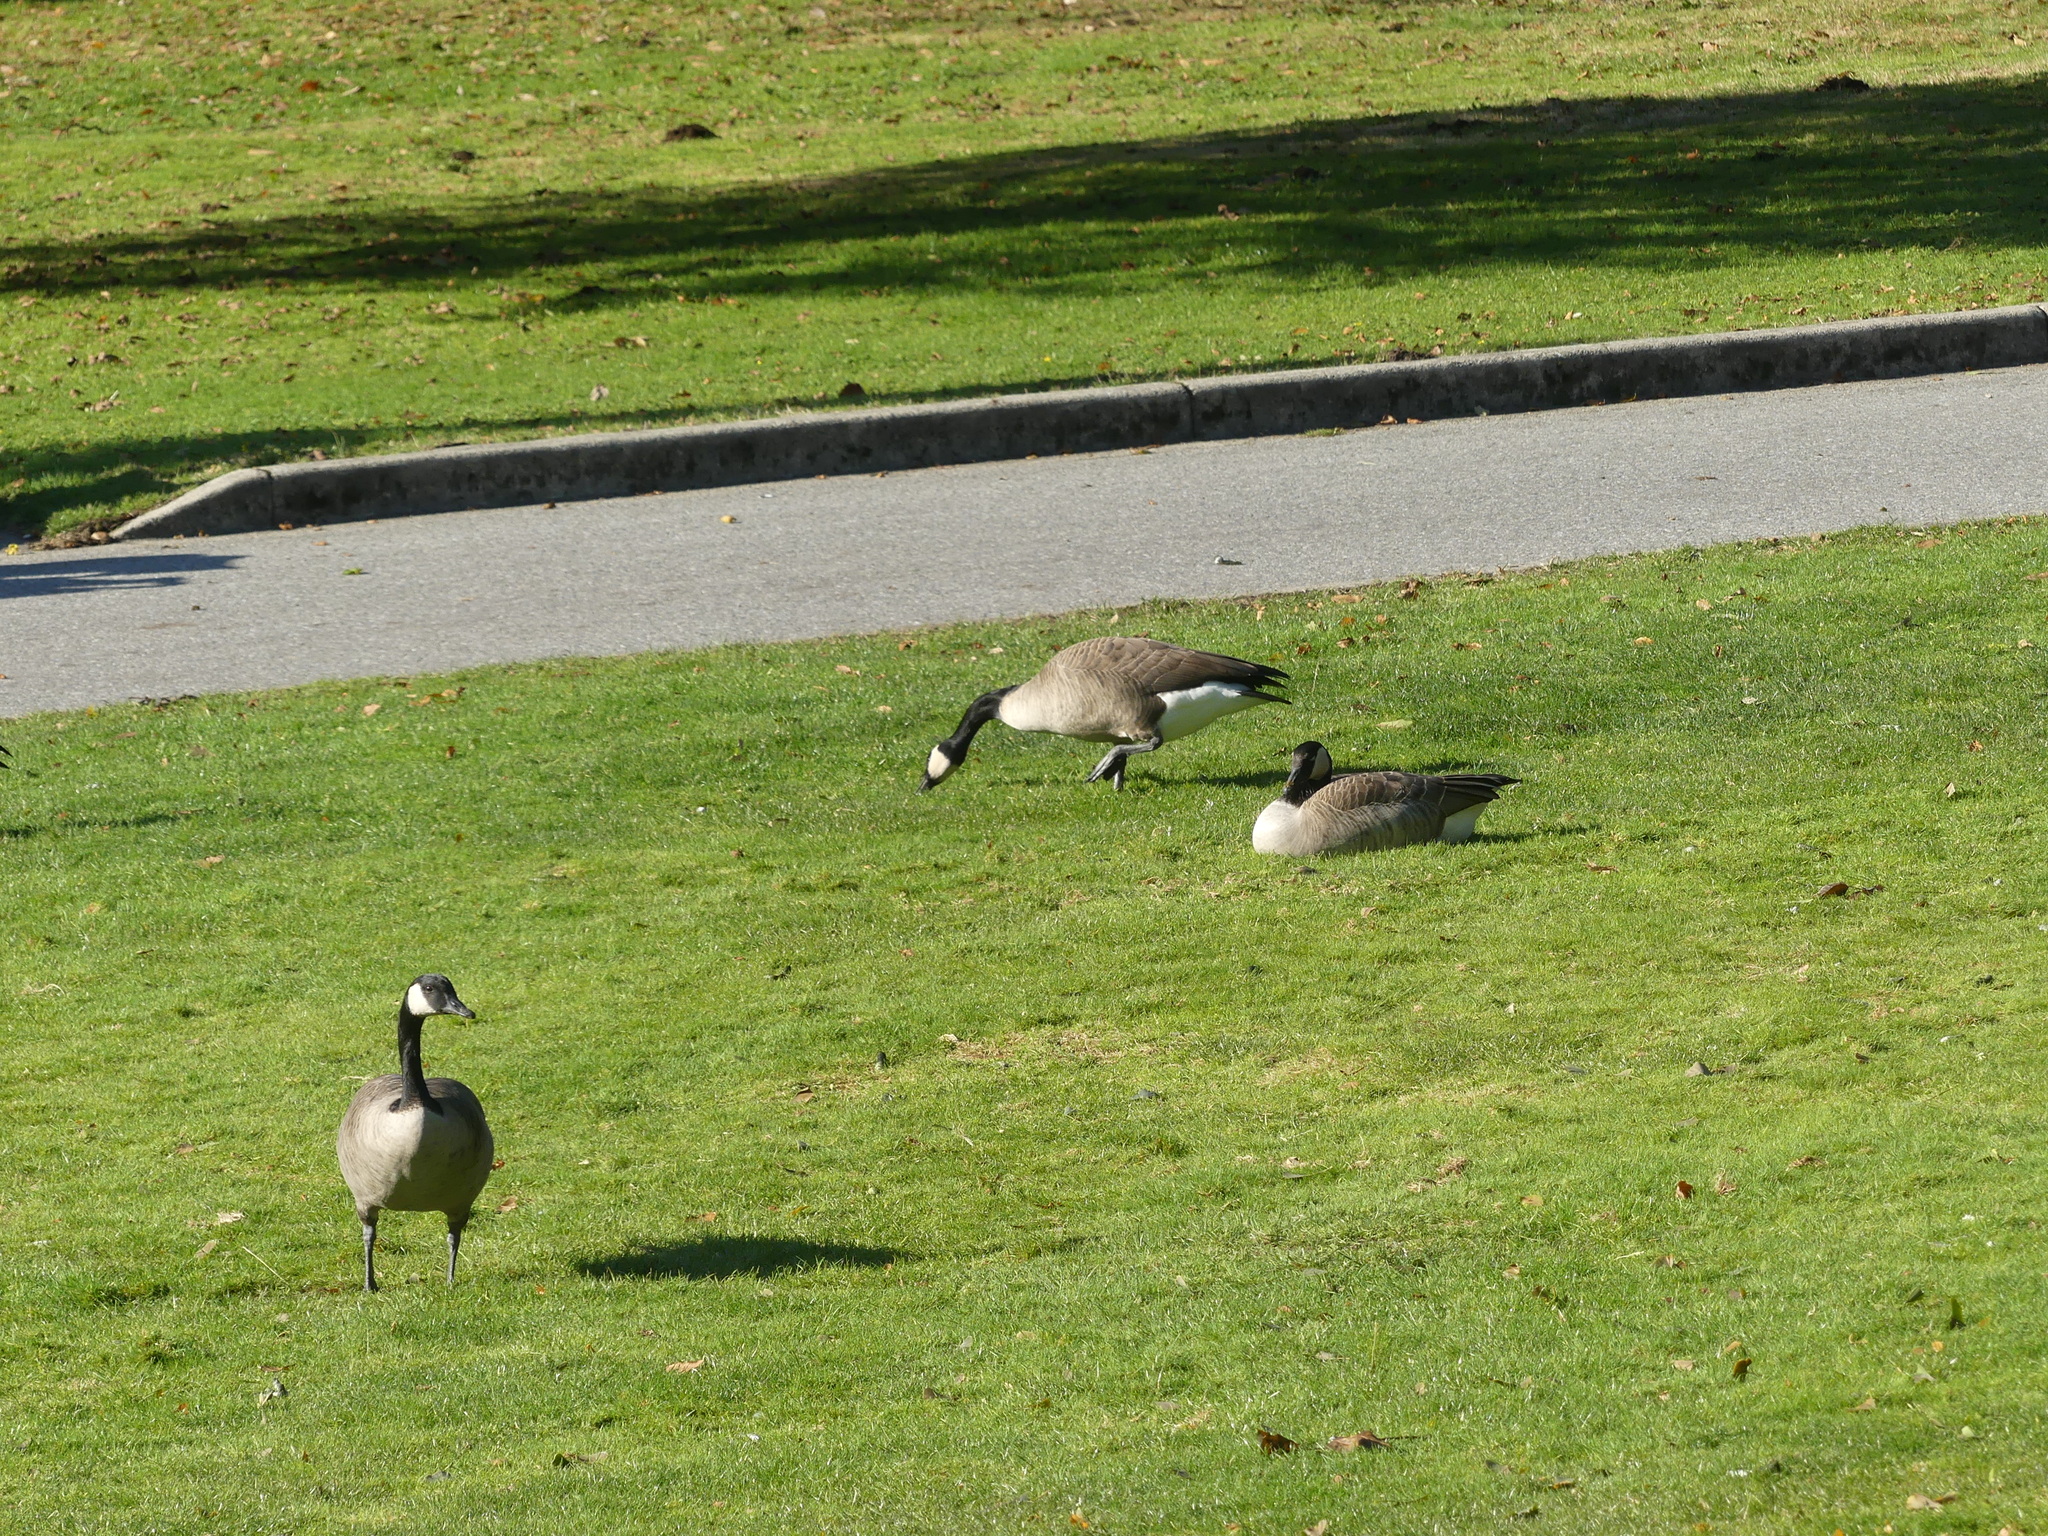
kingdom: Animalia
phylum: Chordata
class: Aves
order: Anseriformes
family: Anatidae
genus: Branta
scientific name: Branta canadensis
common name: Canada goose
